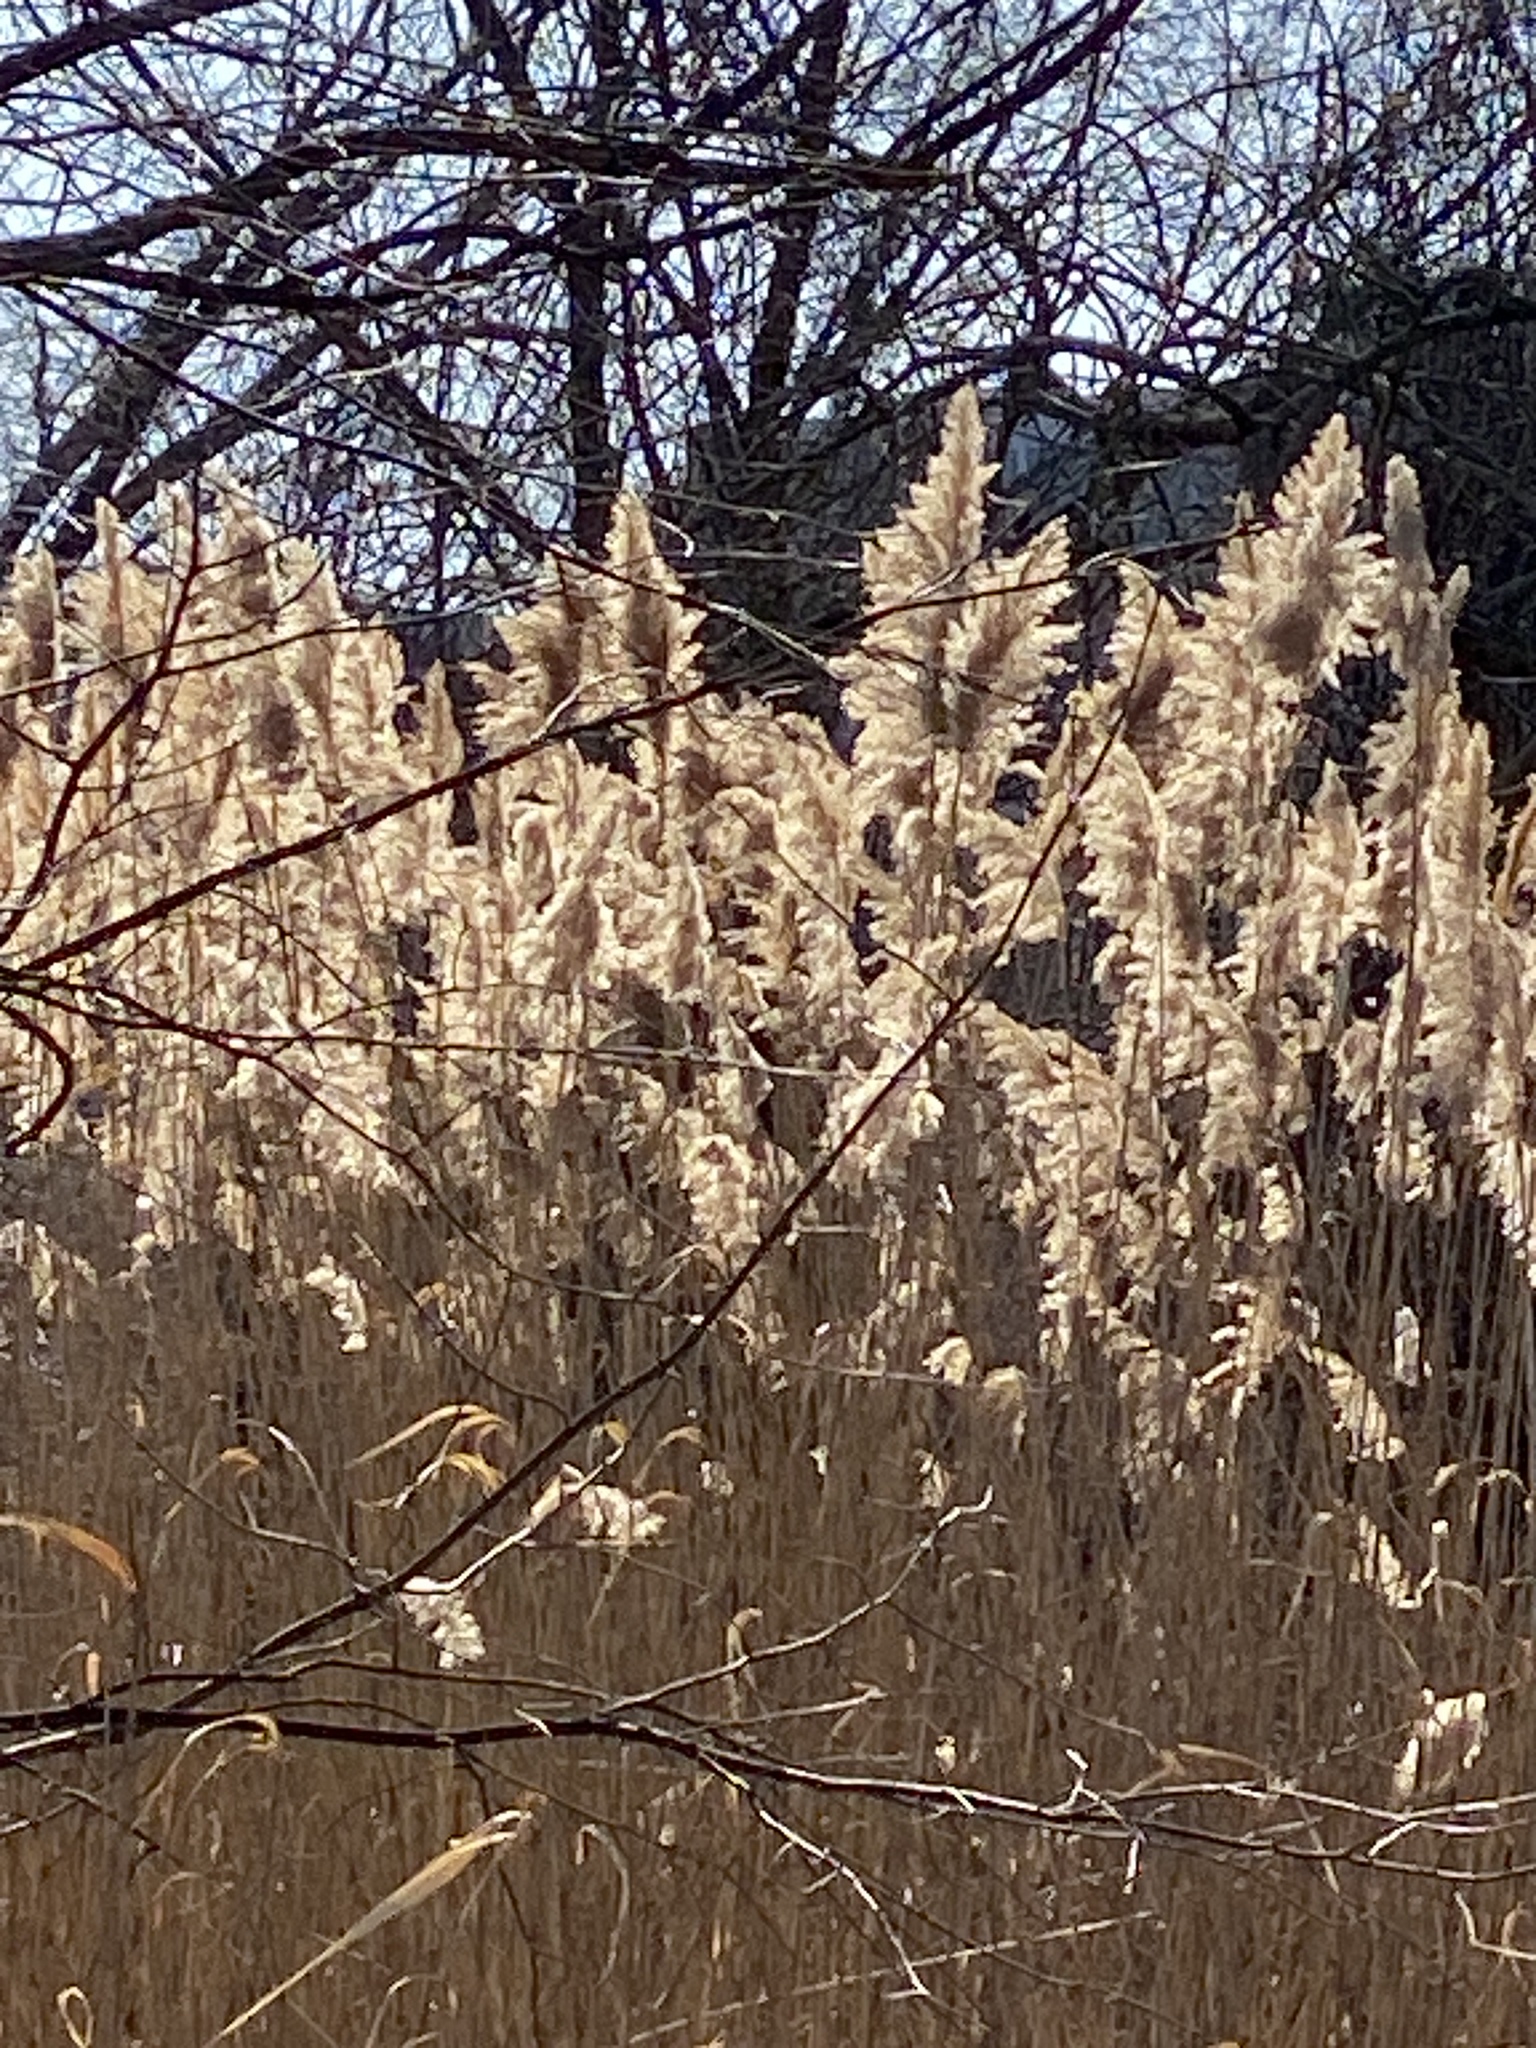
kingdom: Plantae
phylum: Tracheophyta
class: Liliopsida
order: Poales
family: Poaceae
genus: Phragmites
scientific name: Phragmites australis
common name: Common reed
